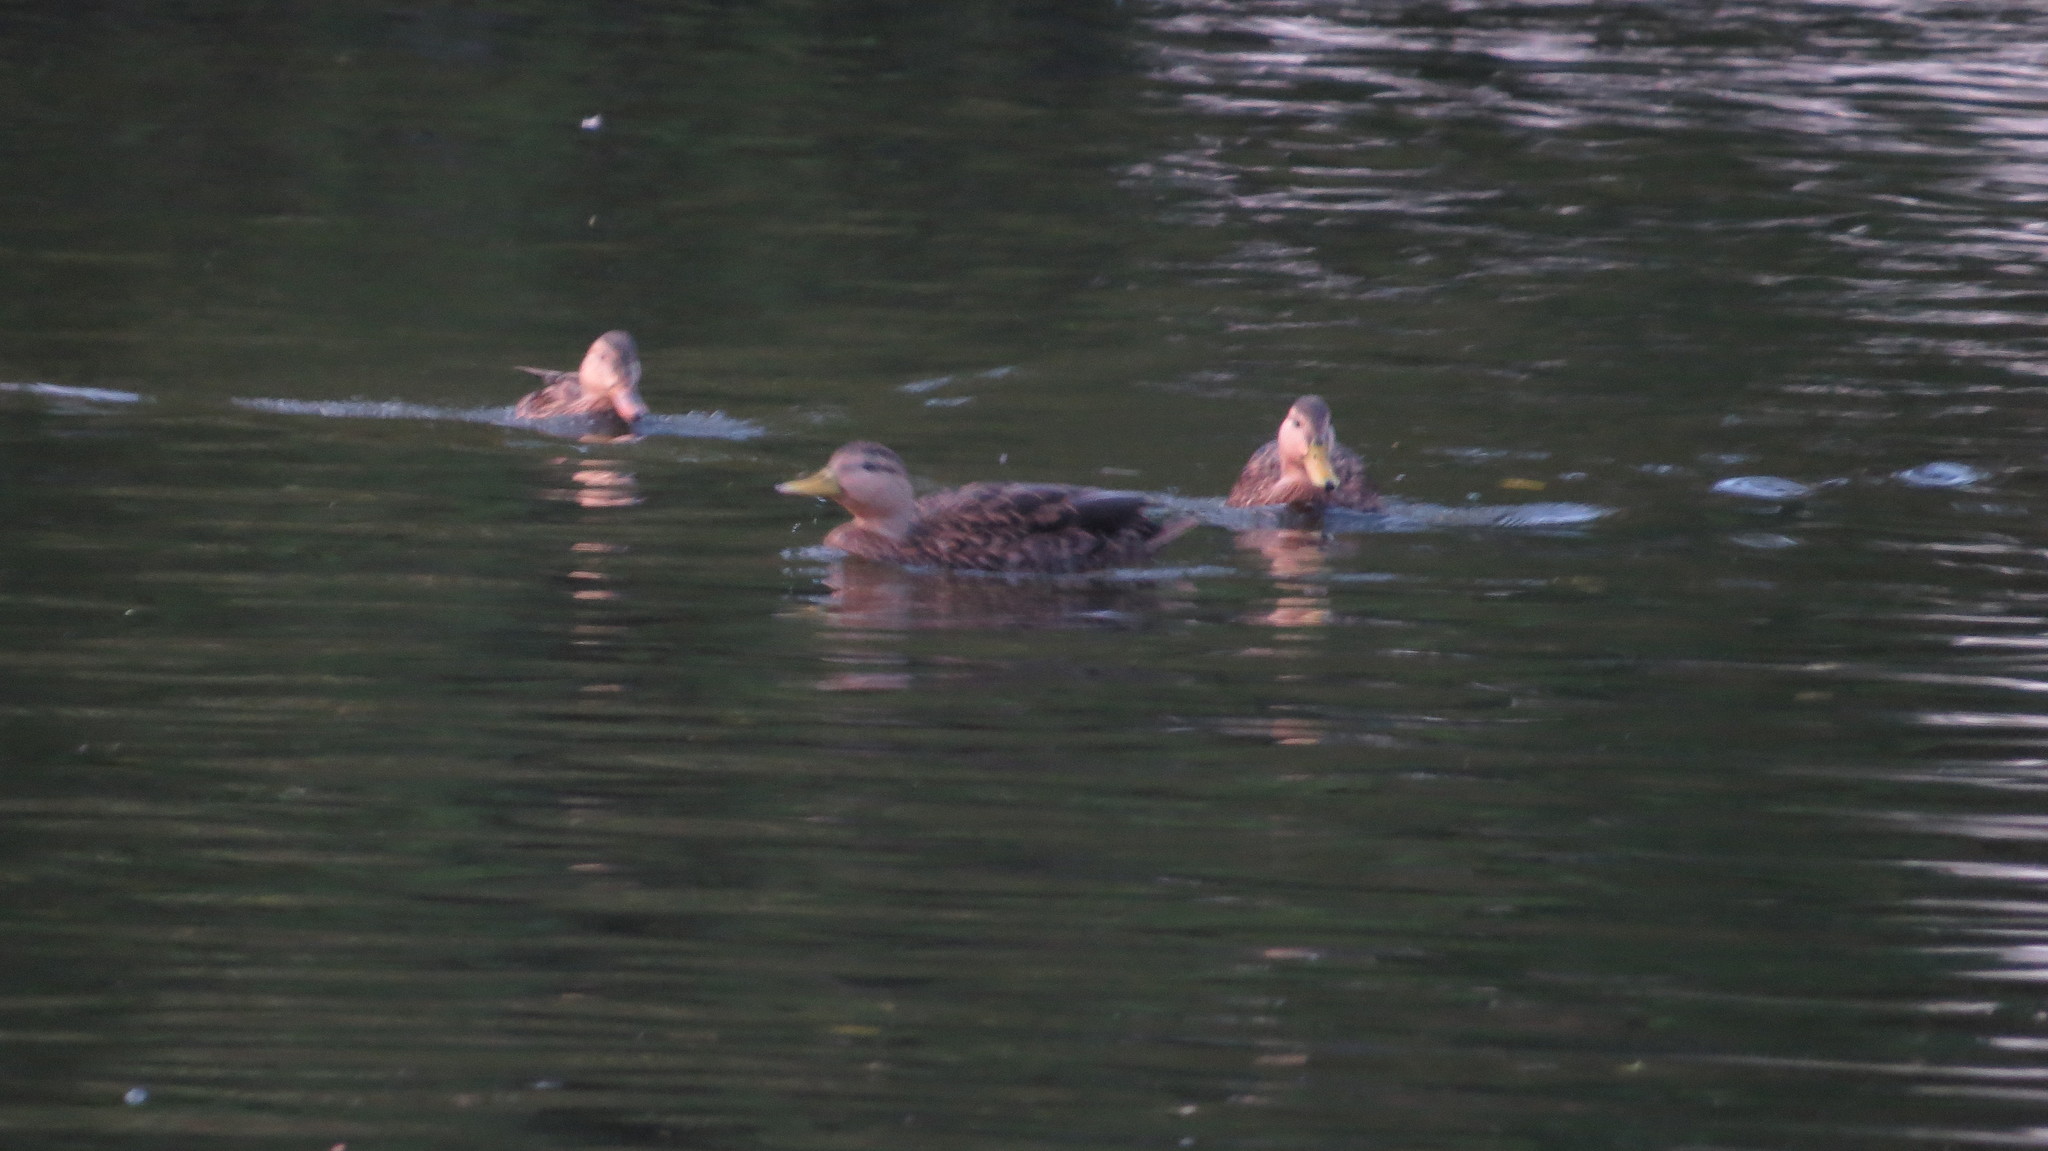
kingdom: Animalia
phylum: Chordata
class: Aves
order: Anseriformes
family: Anatidae
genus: Anas
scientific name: Anas diazi
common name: Mexican duck
